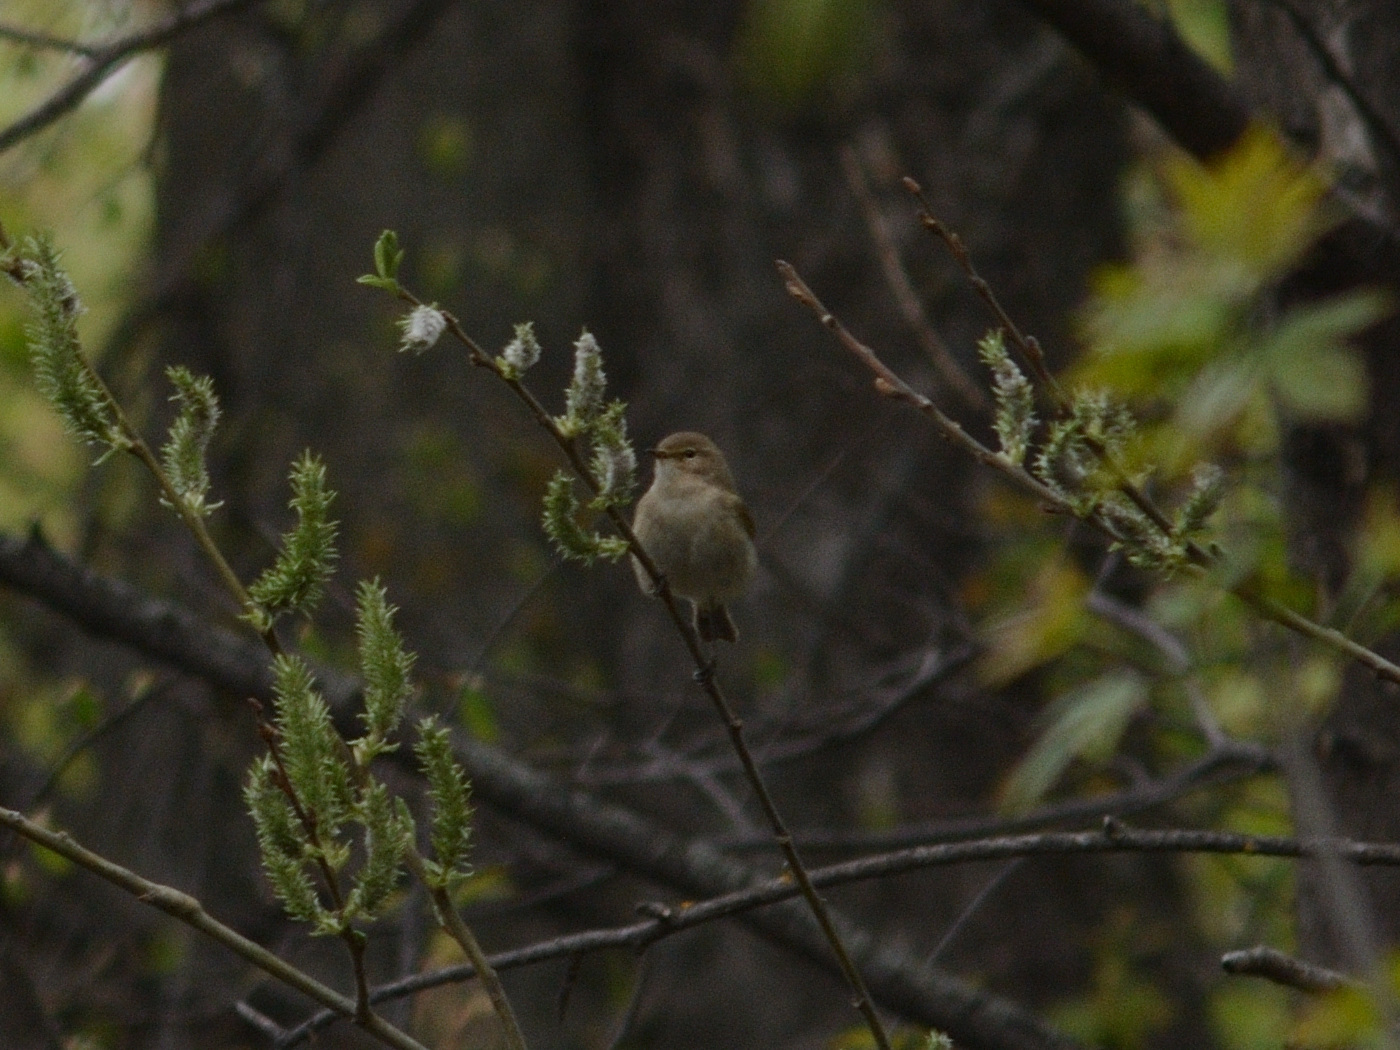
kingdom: Animalia
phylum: Chordata
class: Aves
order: Passeriformes
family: Phylloscopidae
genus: Phylloscopus
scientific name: Phylloscopus collybita
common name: Common chiffchaff
